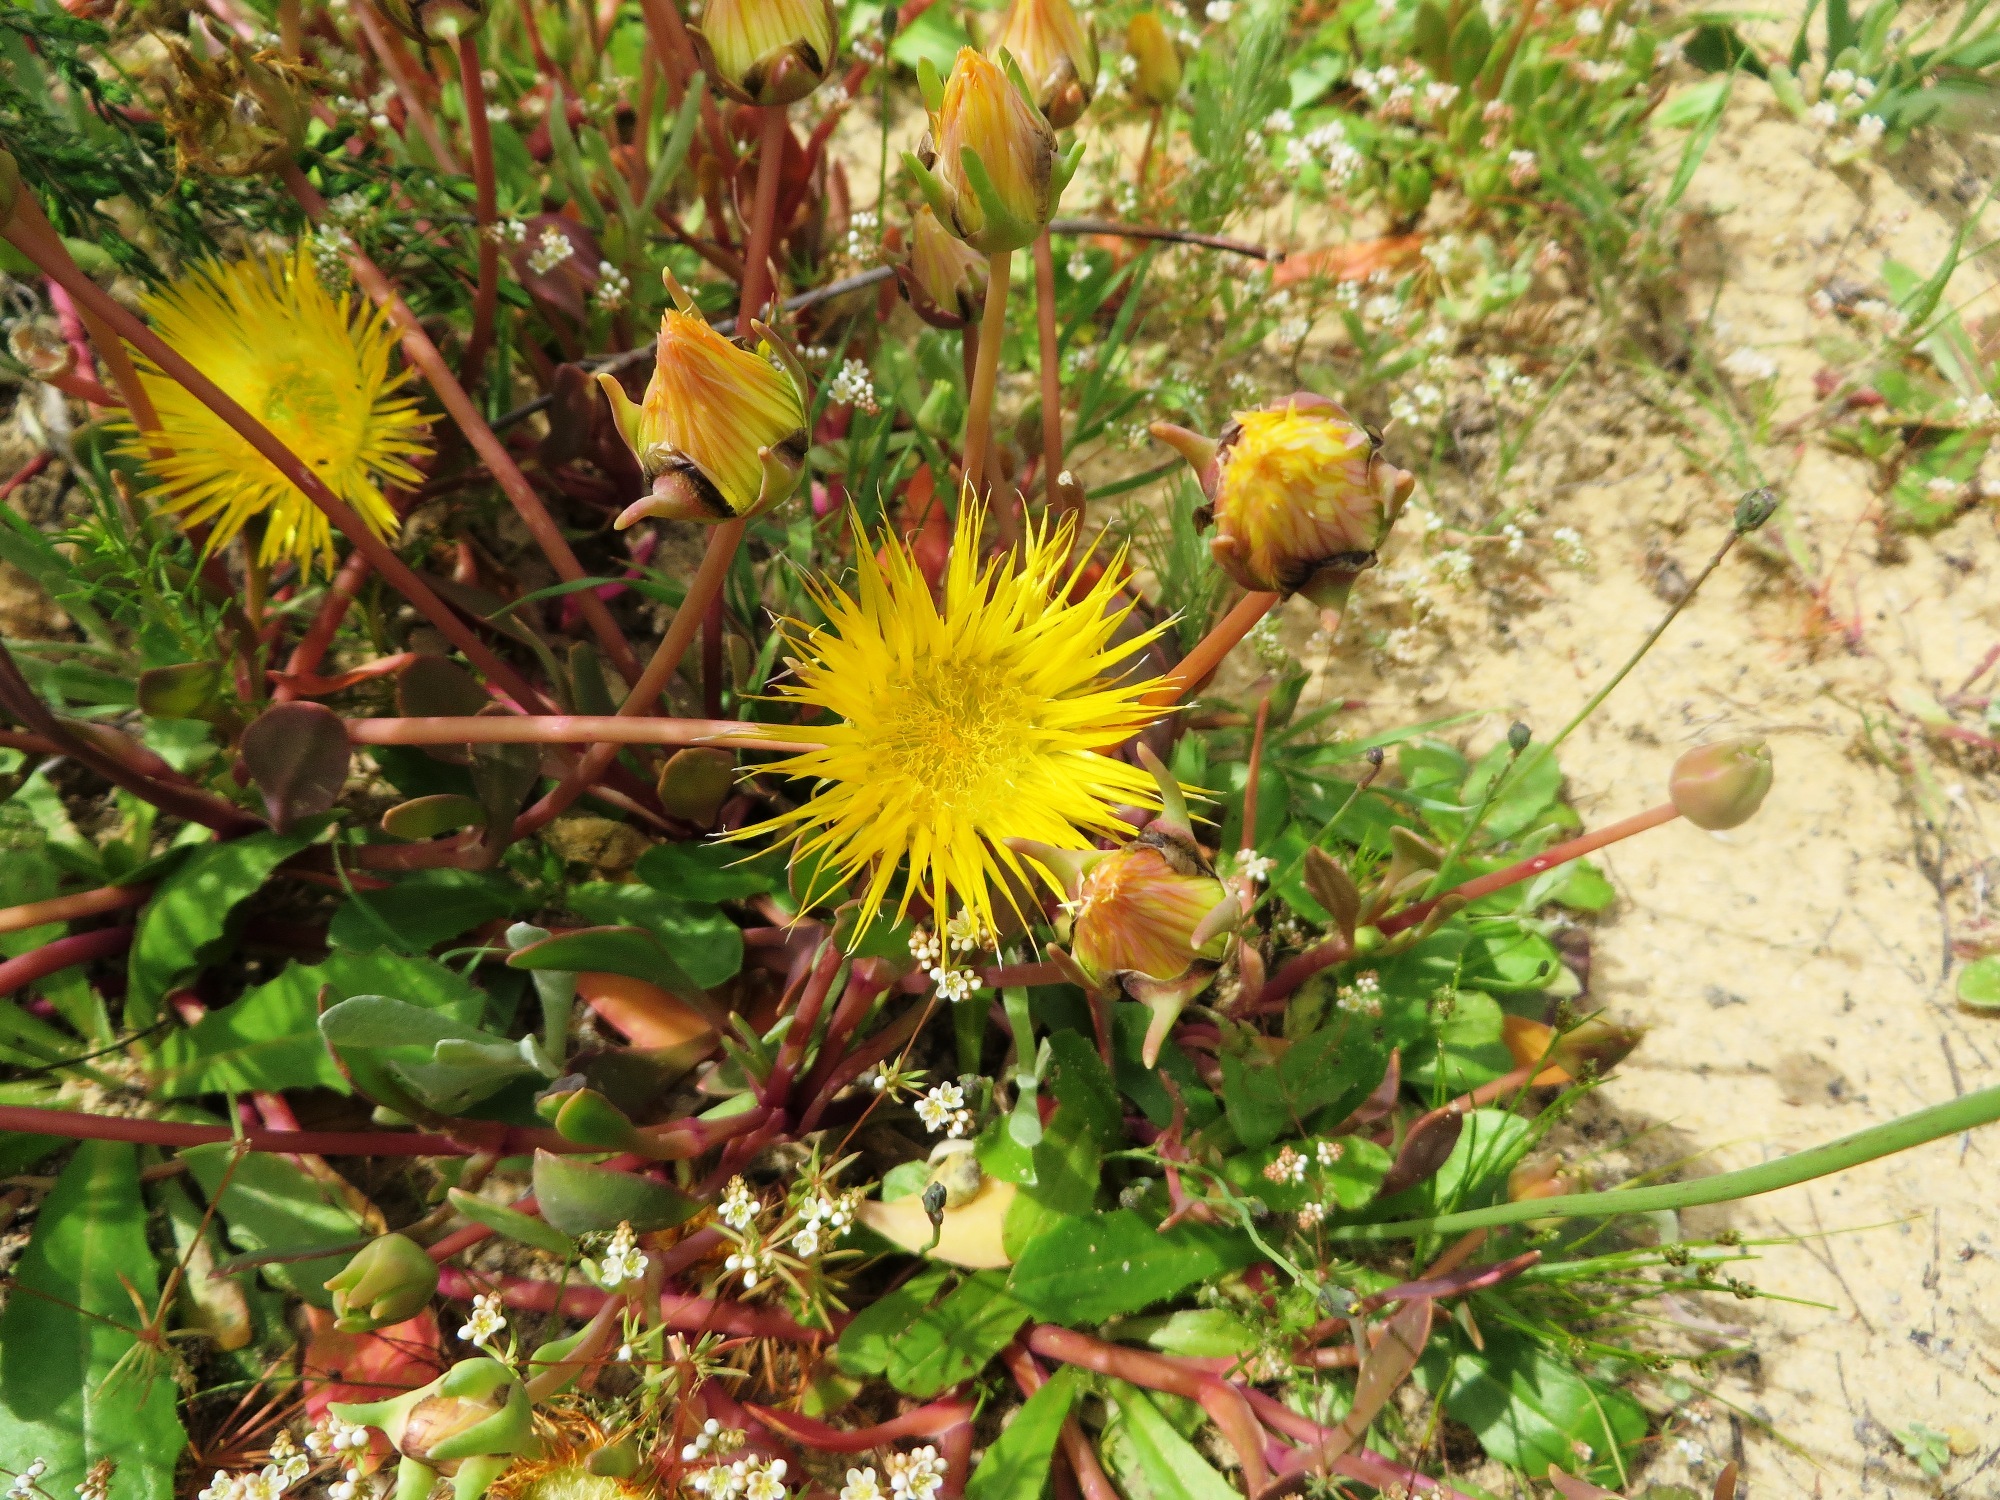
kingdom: Plantae
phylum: Tracheophyta
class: Magnoliopsida
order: Caryophyllales
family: Aizoaceae
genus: Apatesia
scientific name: Apatesia helianthoides
